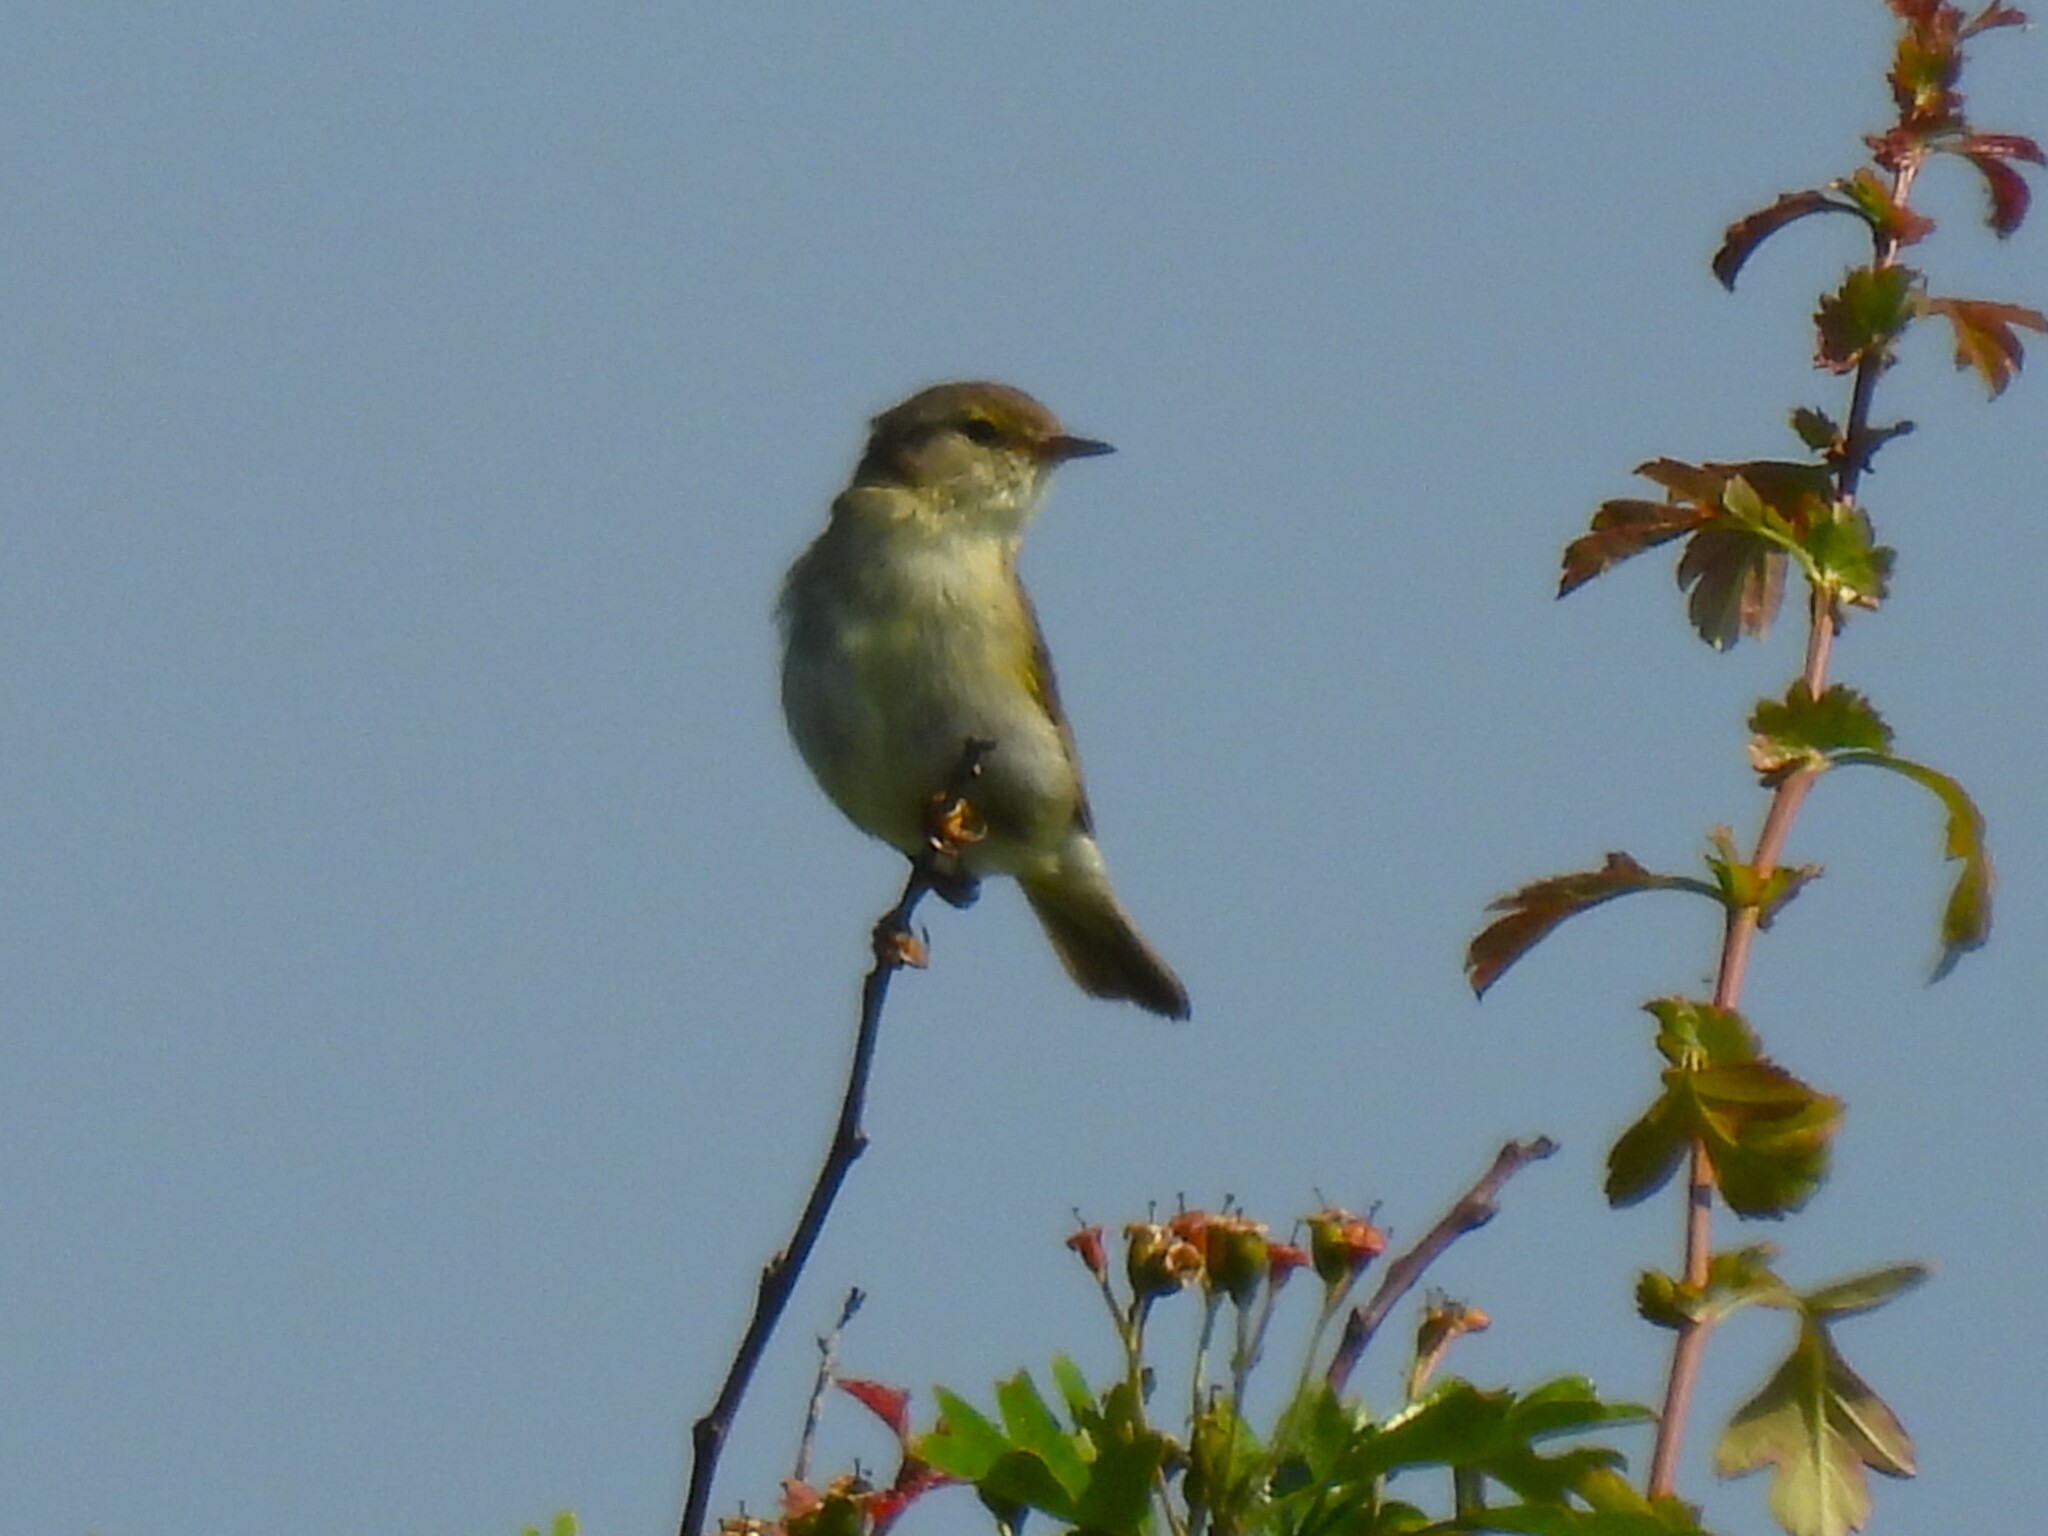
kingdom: Animalia
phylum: Chordata
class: Aves
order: Passeriformes
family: Phylloscopidae
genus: Phylloscopus
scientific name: Phylloscopus trochilus
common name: Willow warbler
